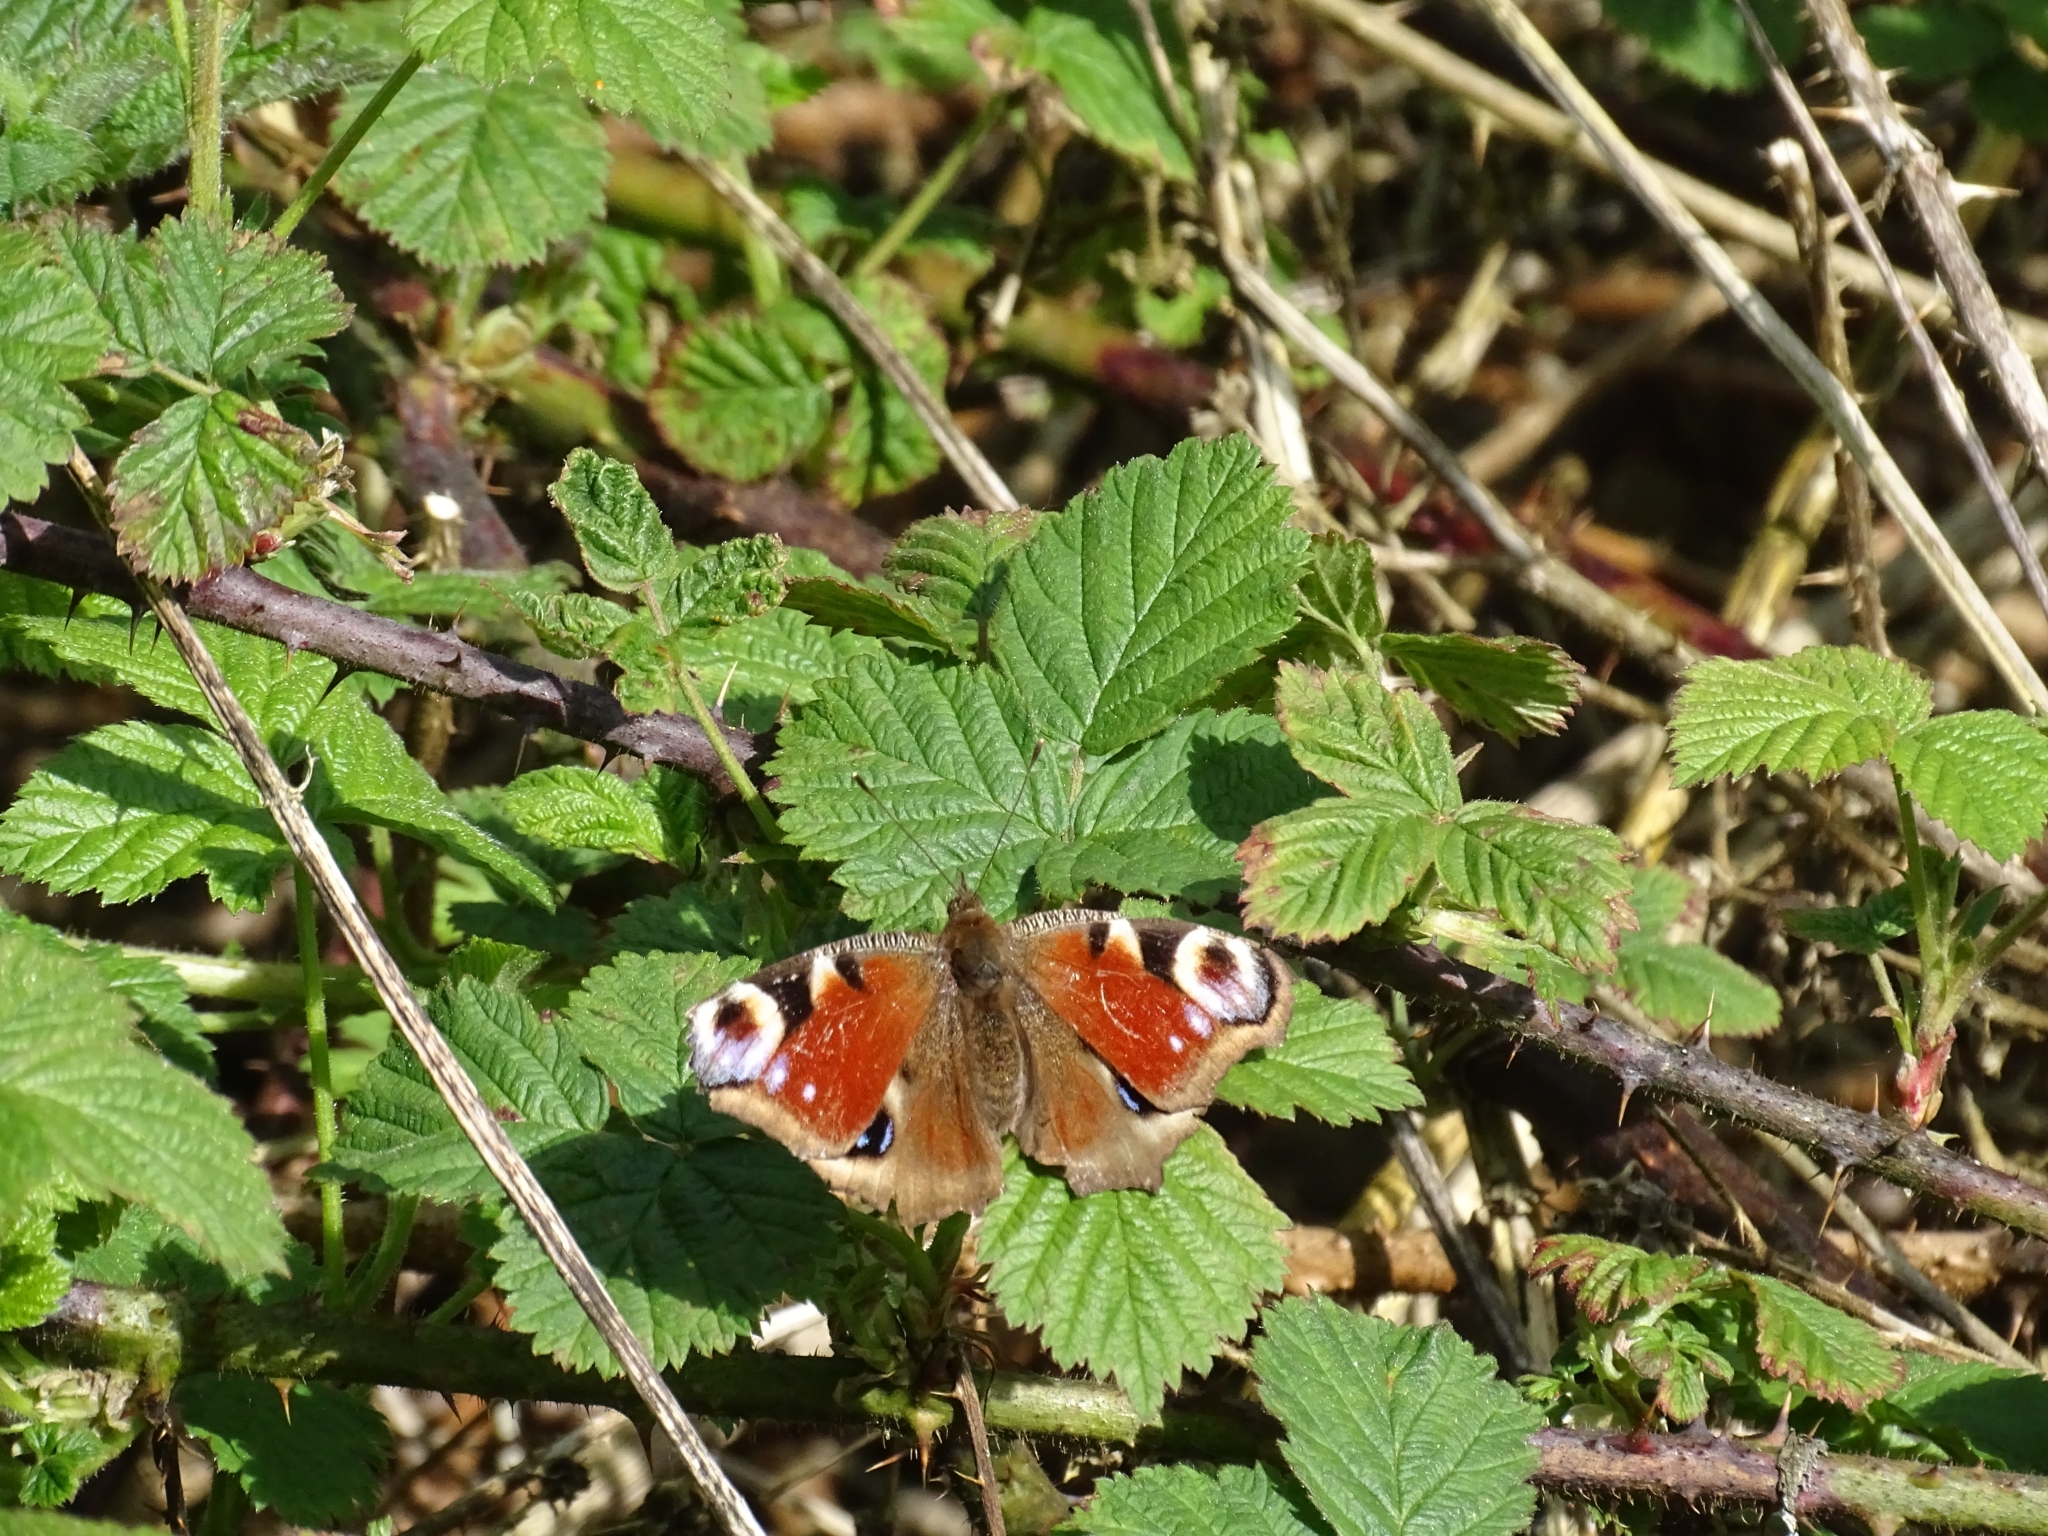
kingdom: Animalia
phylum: Arthropoda
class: Insecta
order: Lepidoptera
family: Nymphalidae
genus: Aglais
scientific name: Aglais io
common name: Peacock
